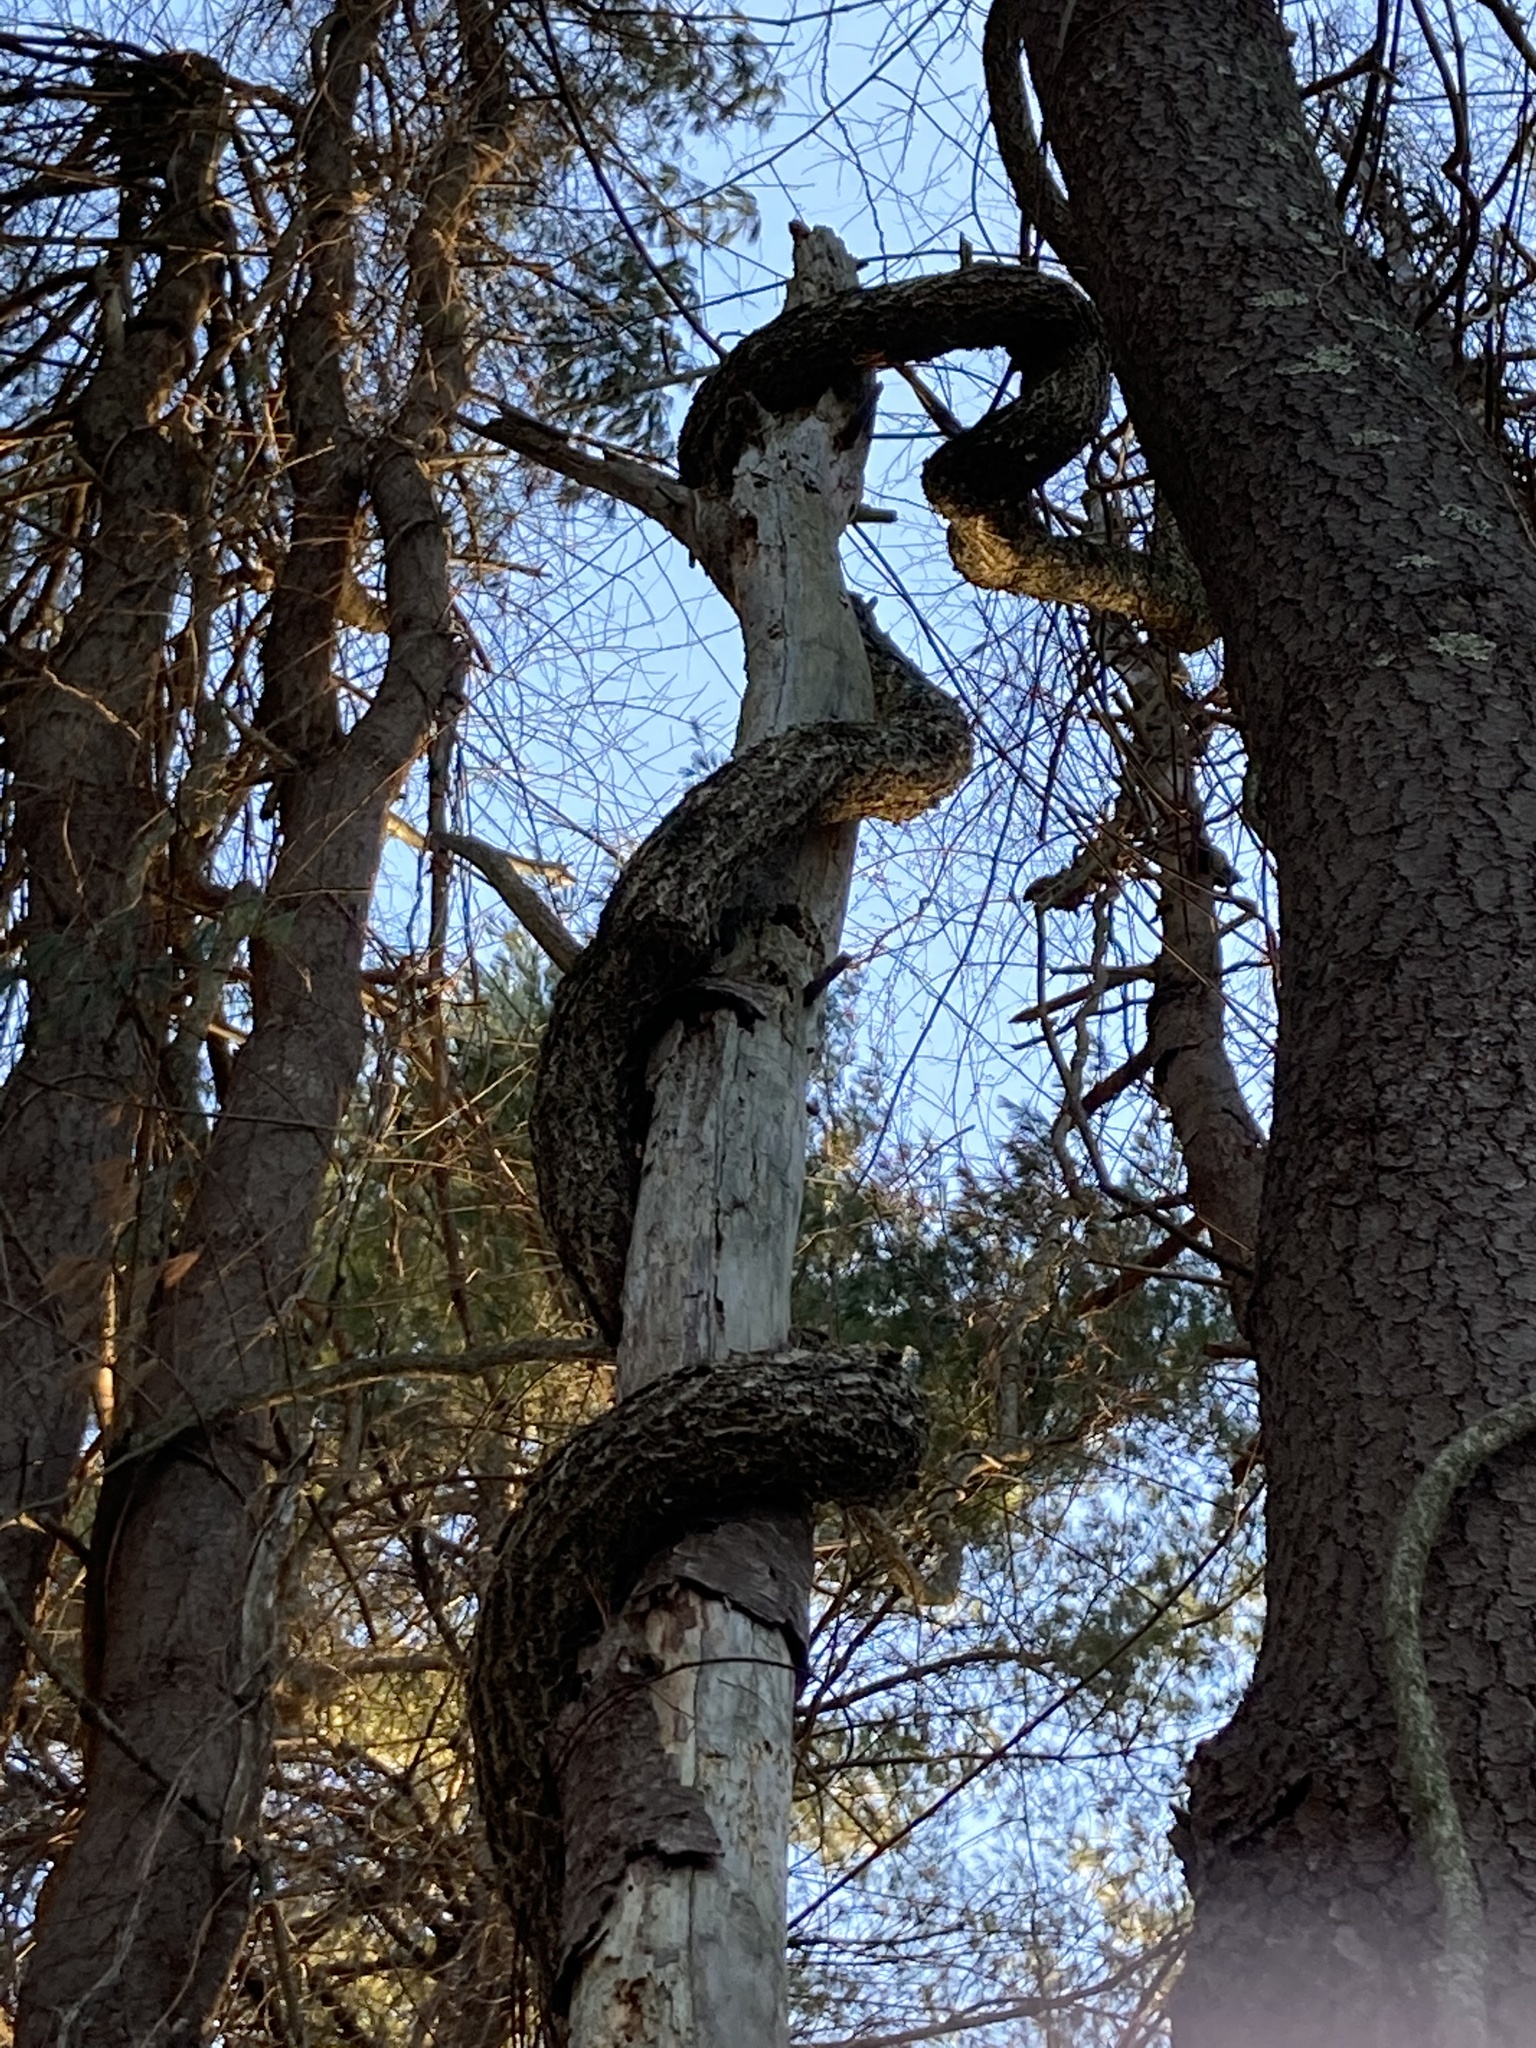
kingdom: Plantae
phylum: Tracheophyta
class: Magnoliopsida
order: Celastrales
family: Celastraceae
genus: Celastrus
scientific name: Celastrus orbiculatus
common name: Oriental bittersweet
